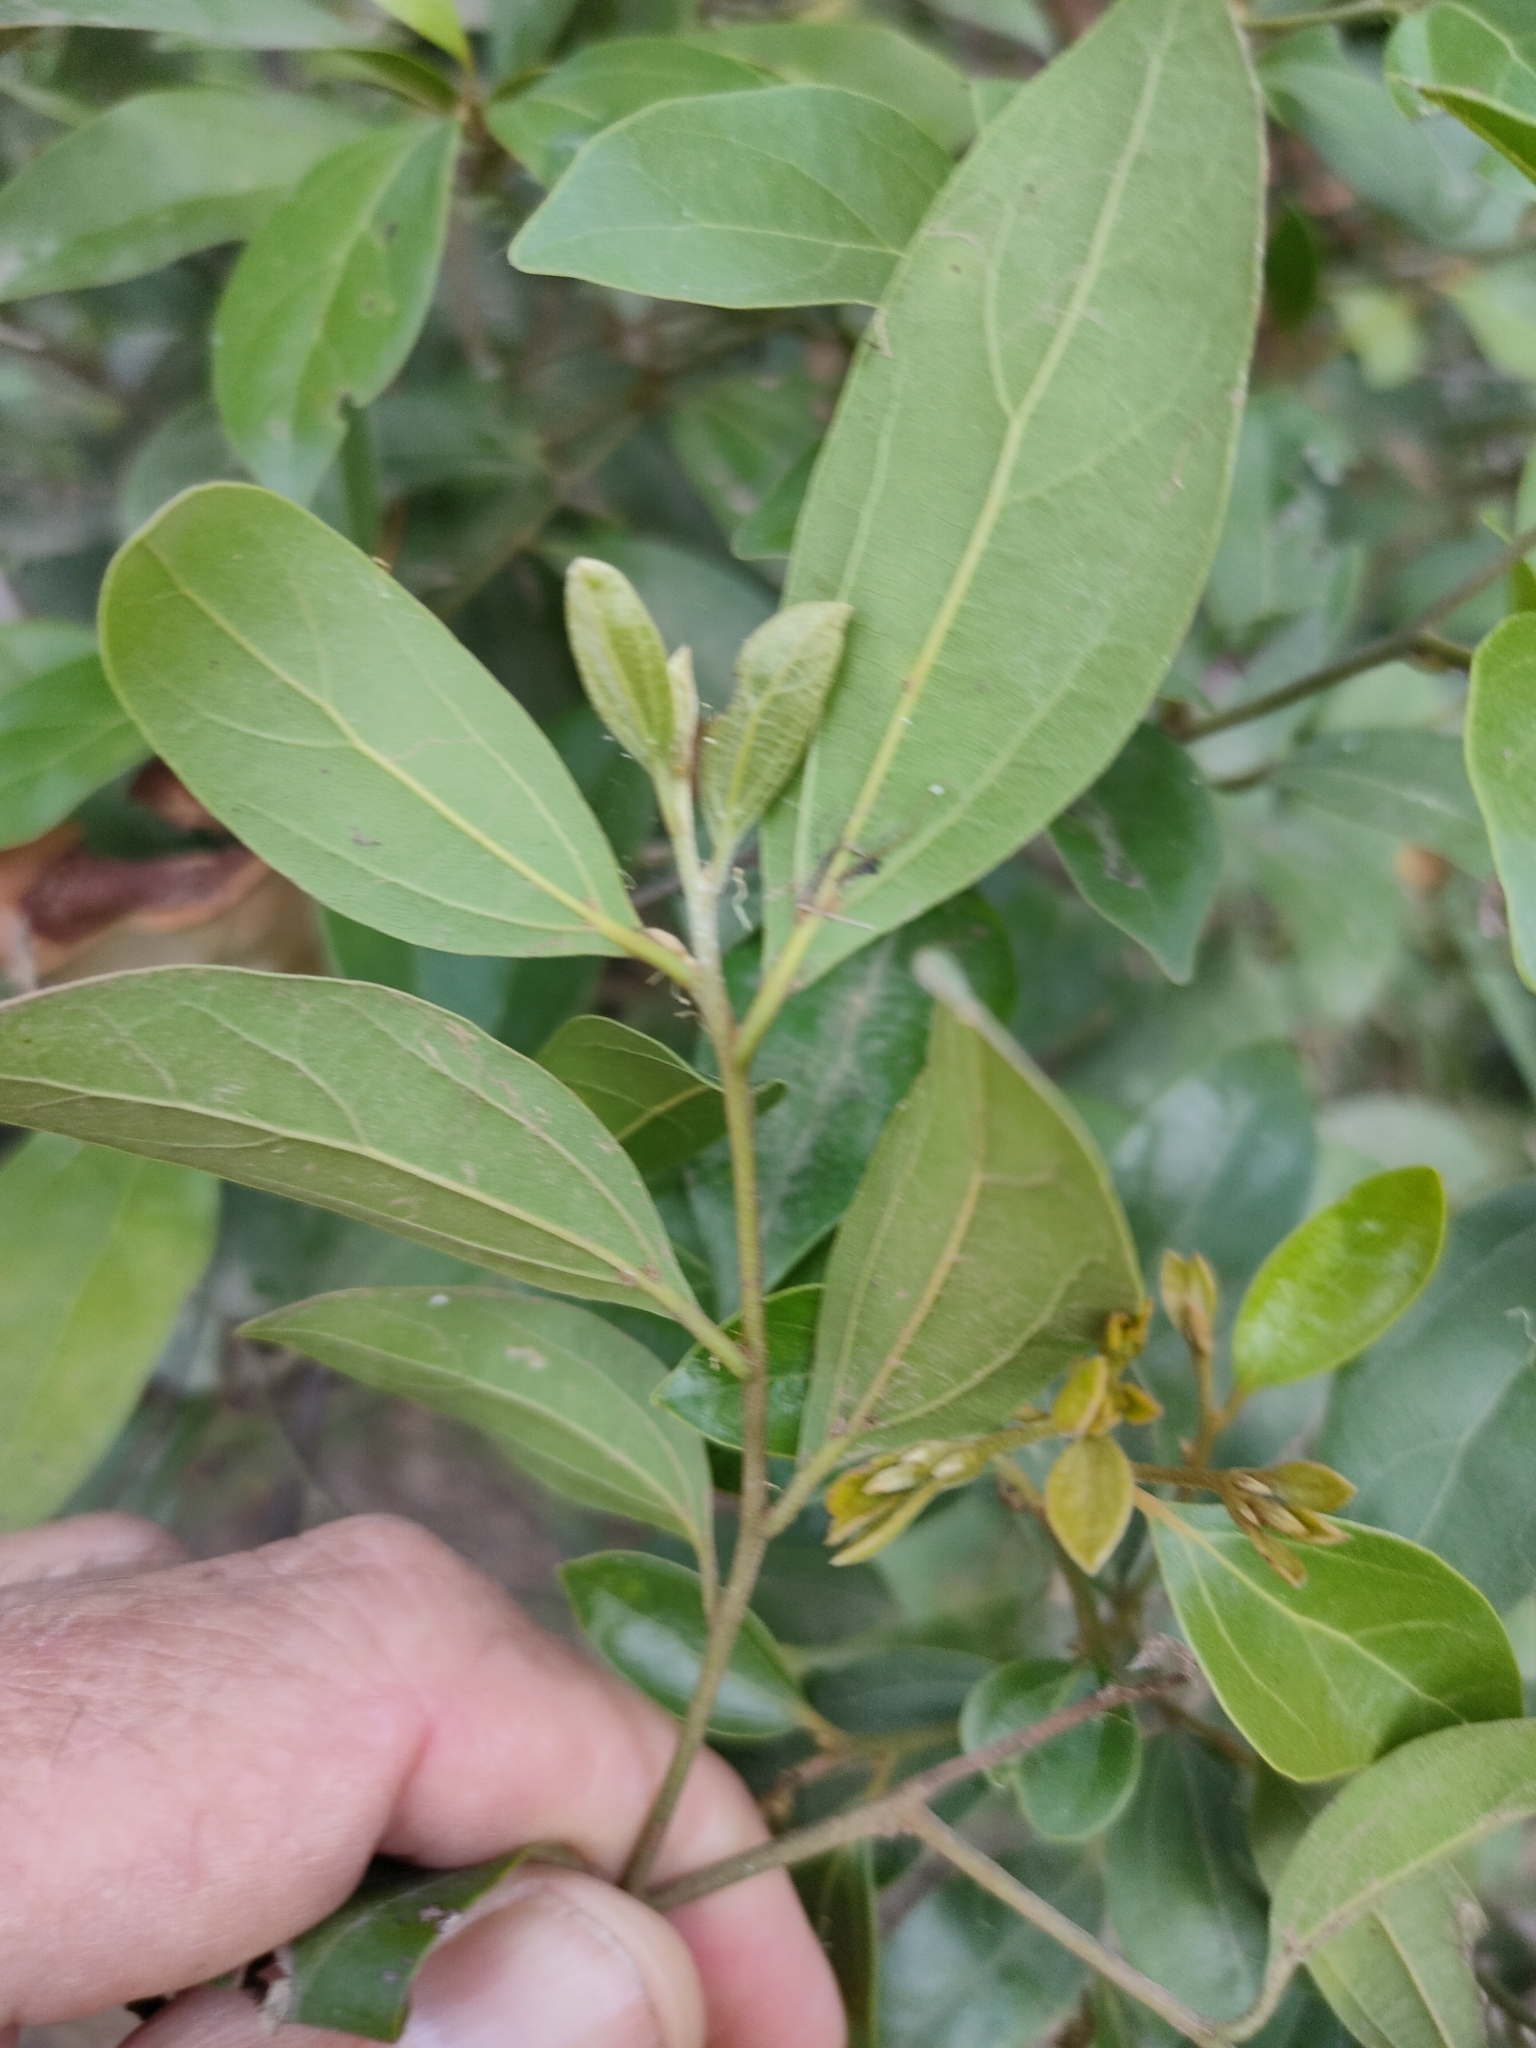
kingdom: Plantae
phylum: Tracheophyta
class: Magnoliopsida
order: Laurales
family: Lauraceae
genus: Cryptocarya
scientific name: Cryptocarya triplinervis
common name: Three-vein cryptocarya
